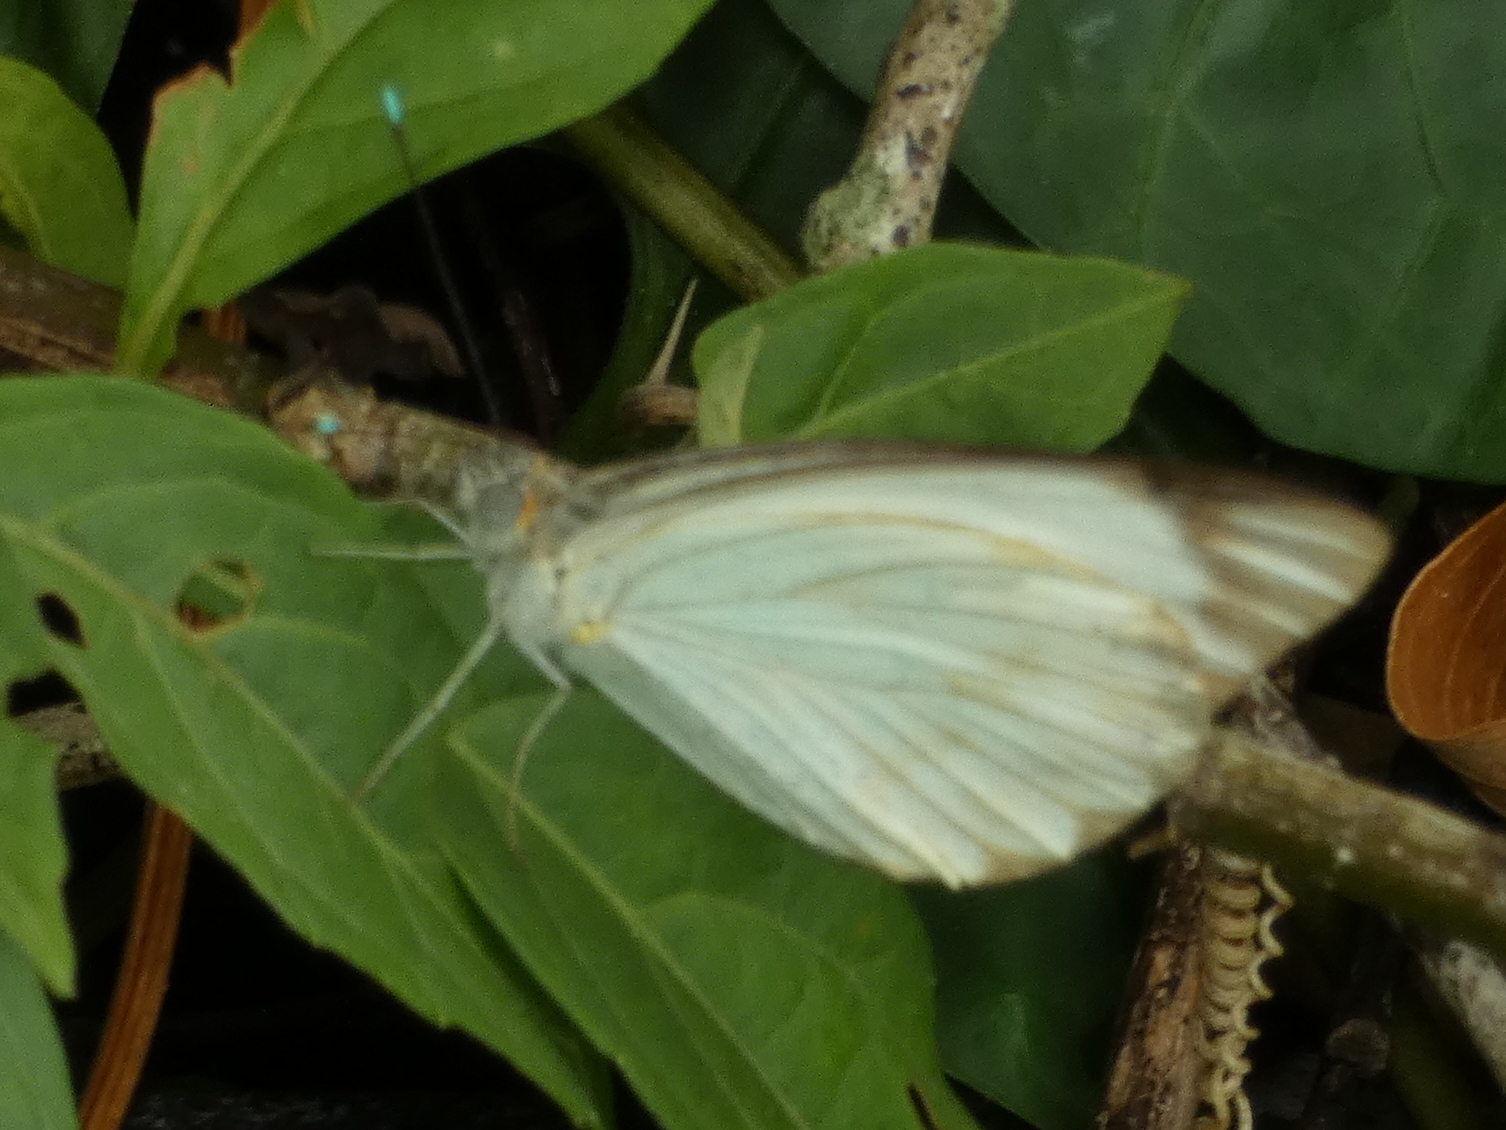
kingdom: Animalia
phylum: Arthropoda
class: Insecta
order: Lepidoptera
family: Pieridae
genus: Ascia
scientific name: Ascia monuste
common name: Great southern white
